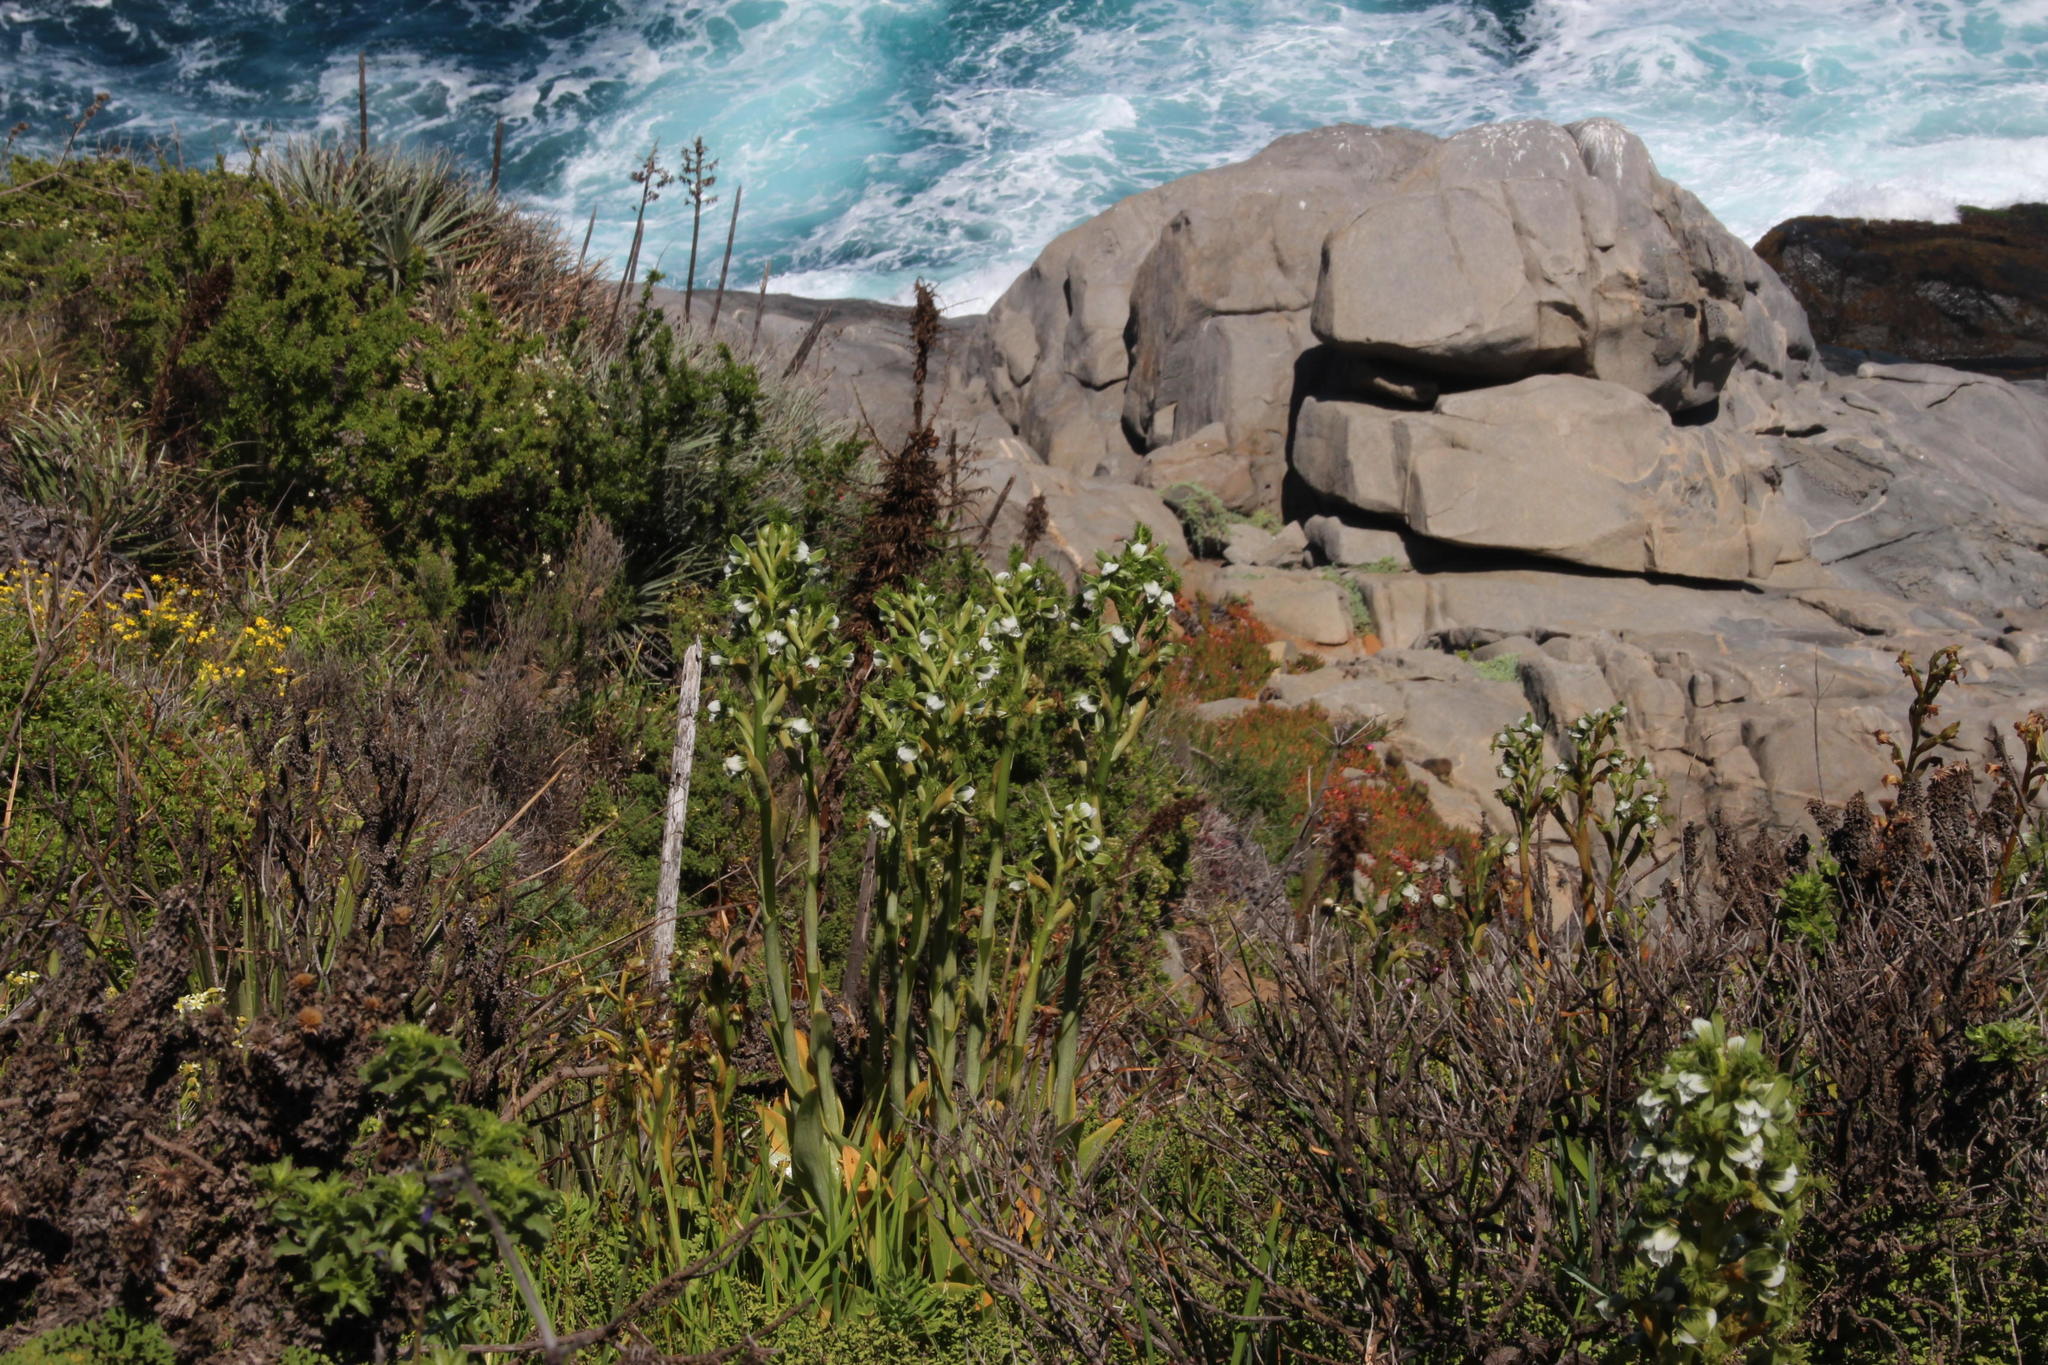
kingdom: Plantae
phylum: Tracheophyta
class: Liliopsida
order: Asparagales
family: Orchidaceae
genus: Bipinnula
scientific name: Bipinnula fimbriata
